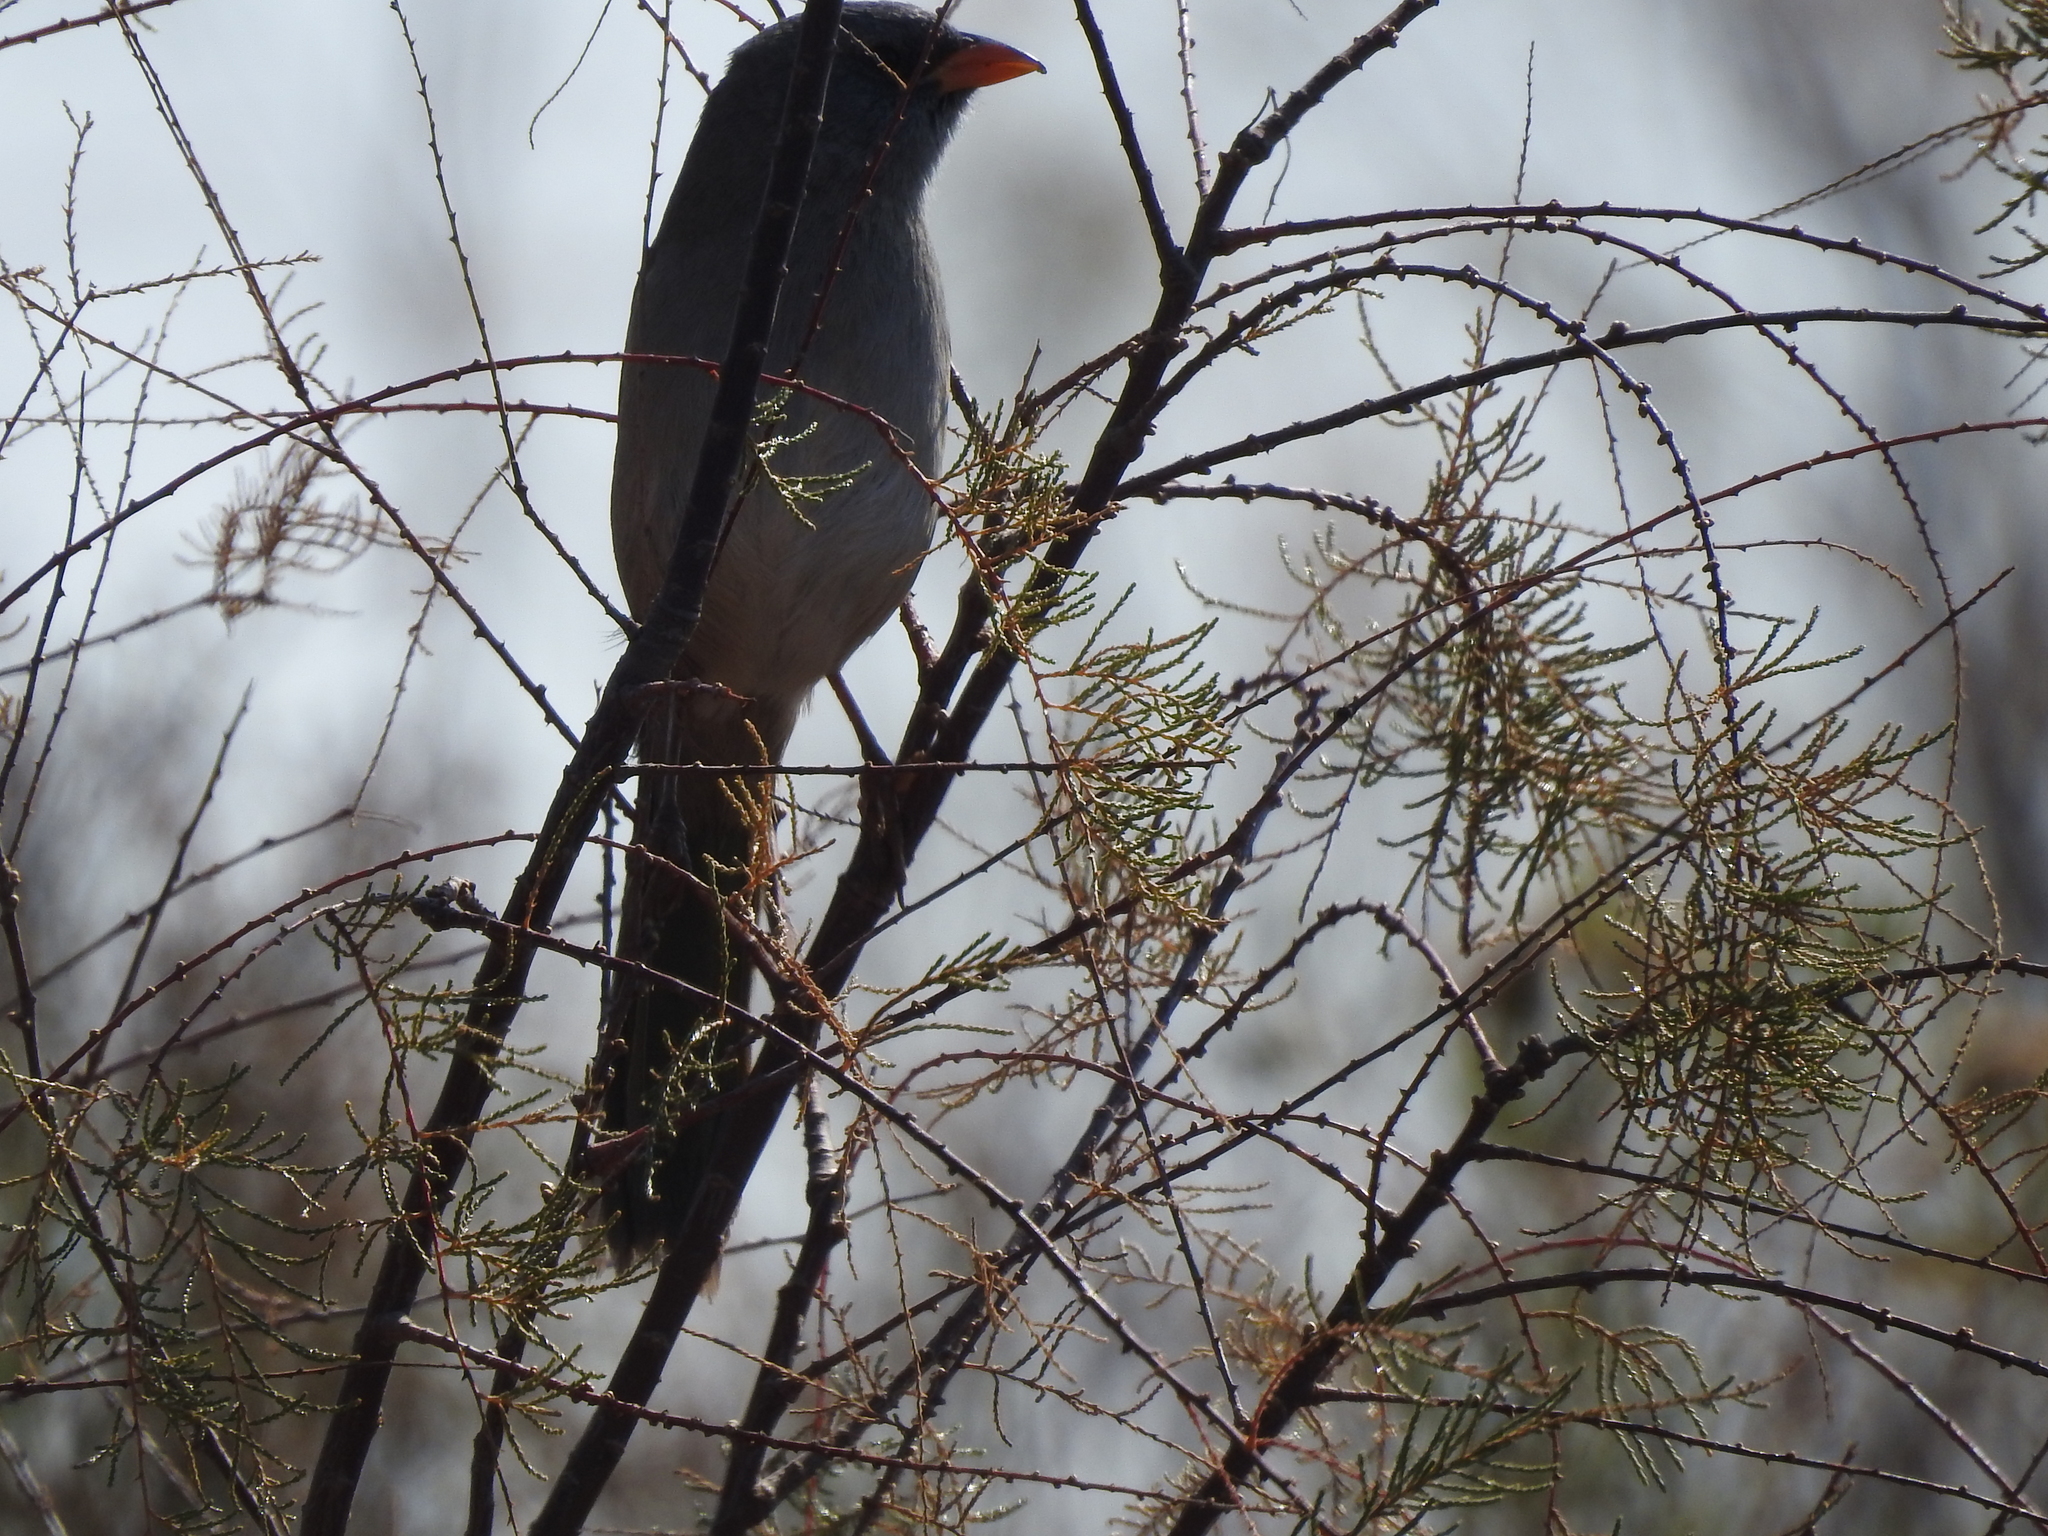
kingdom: Animalia
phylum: Chordata
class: Aves
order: Passeriformes
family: Thraupidae
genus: Embernagra
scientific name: Embernagra platensis
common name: Pampa finch
